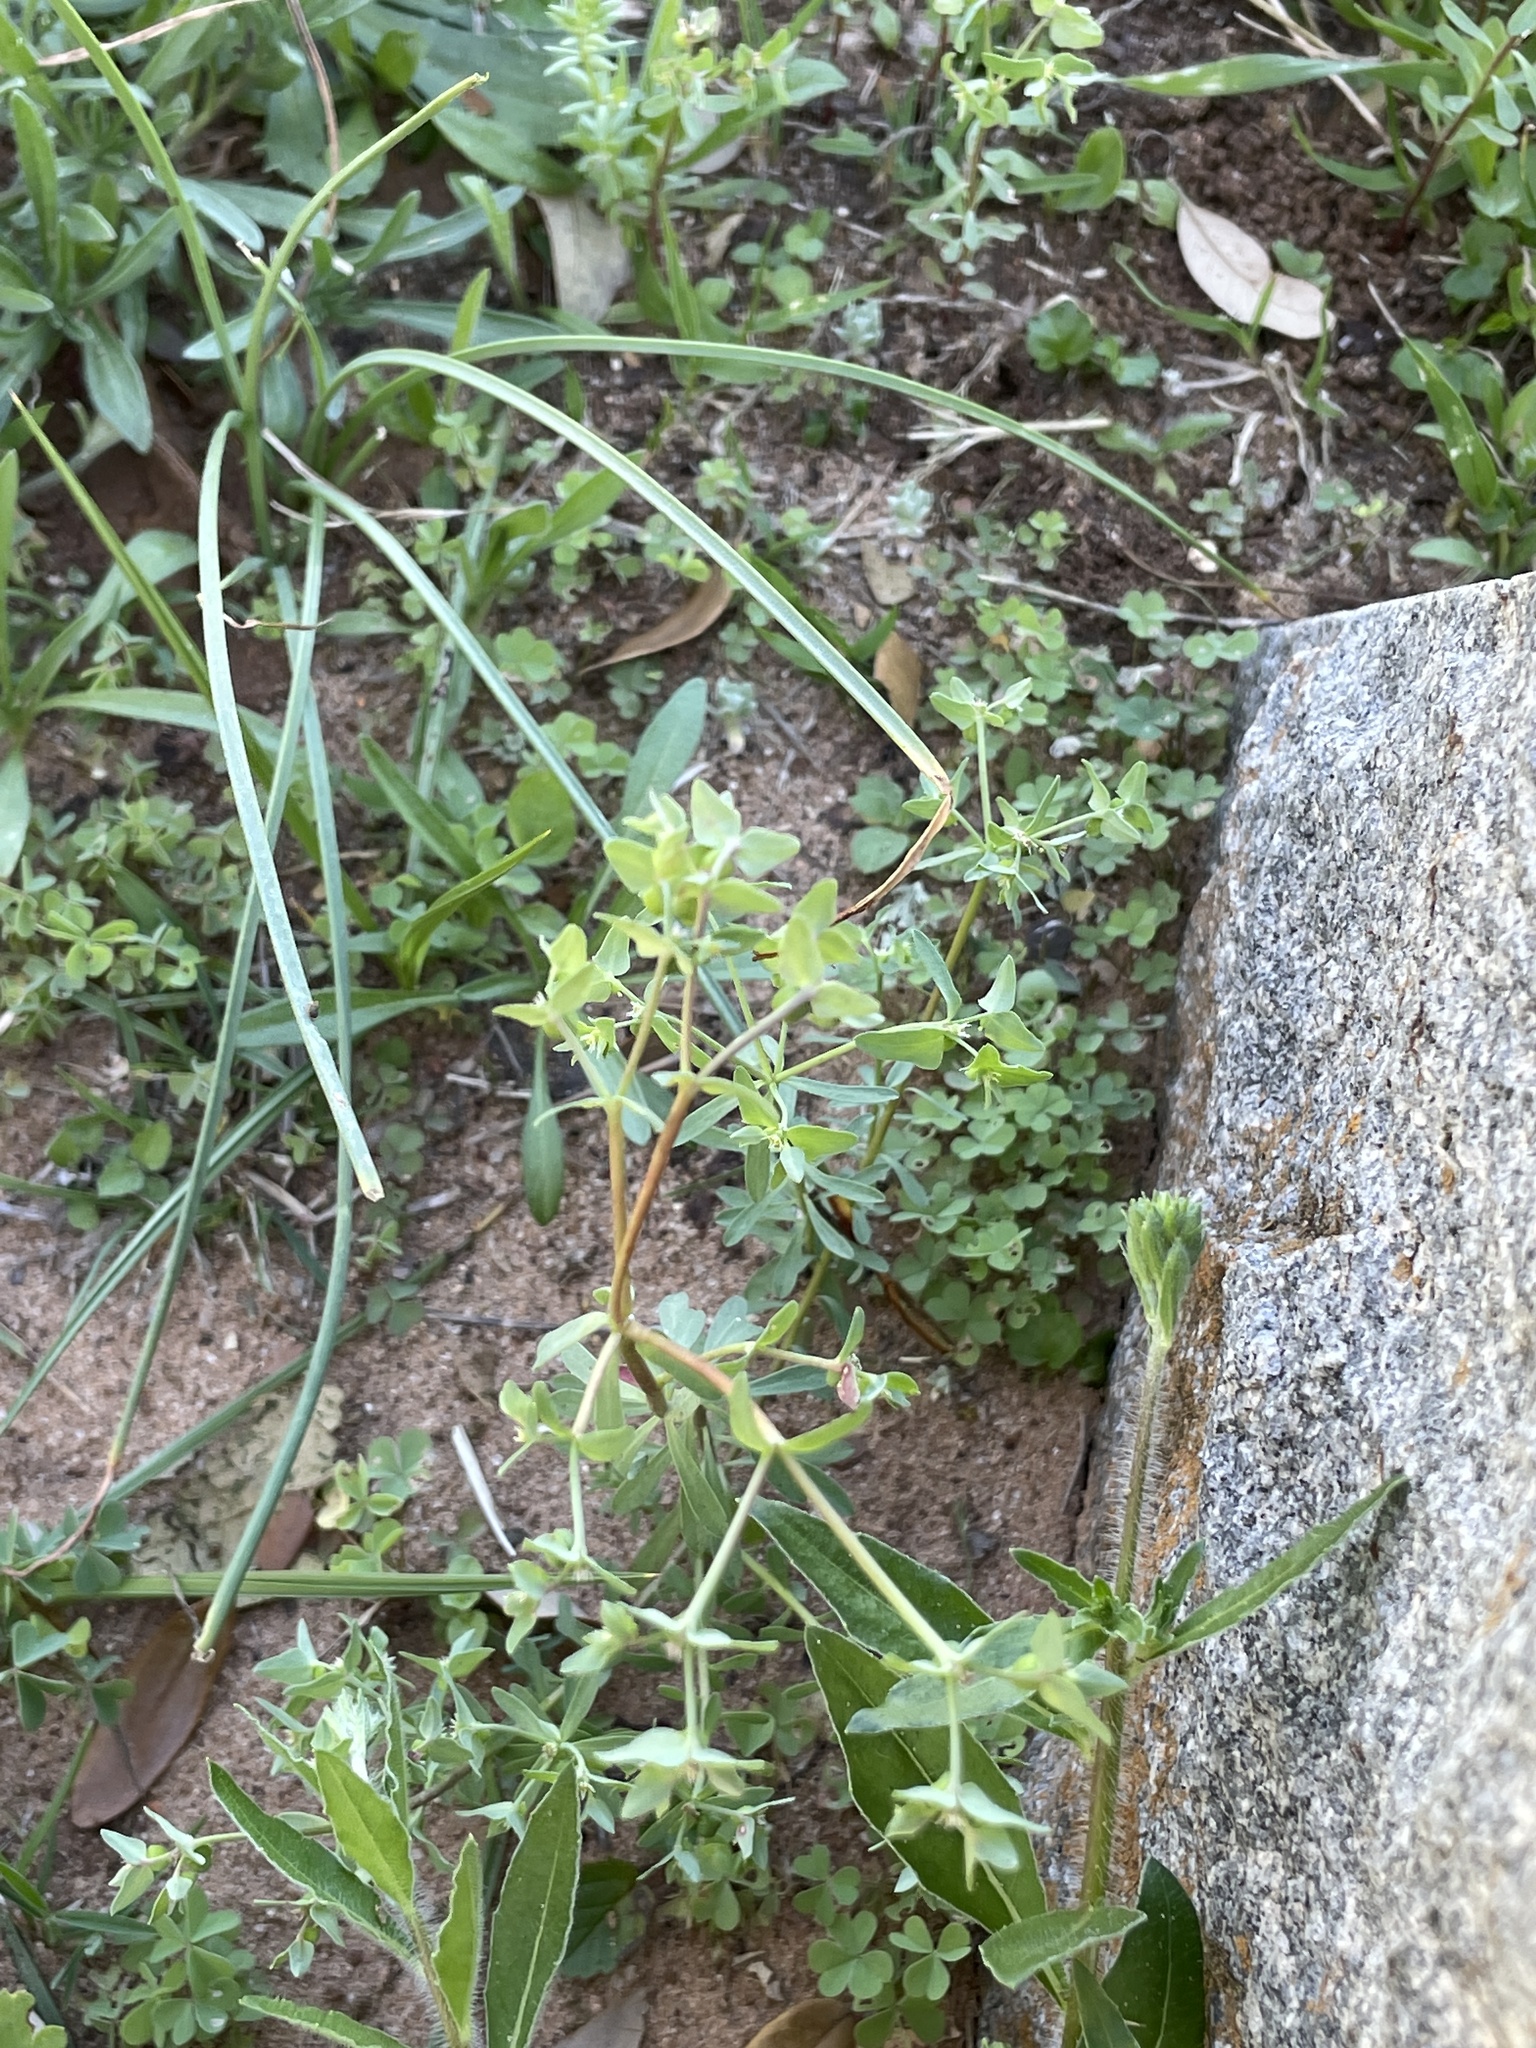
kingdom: Plantae
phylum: Tracheophyta
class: Magnoliopsida
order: Malpighiales
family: Euphorbiaceae
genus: Euphorbia
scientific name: Euphorbia peplidion
